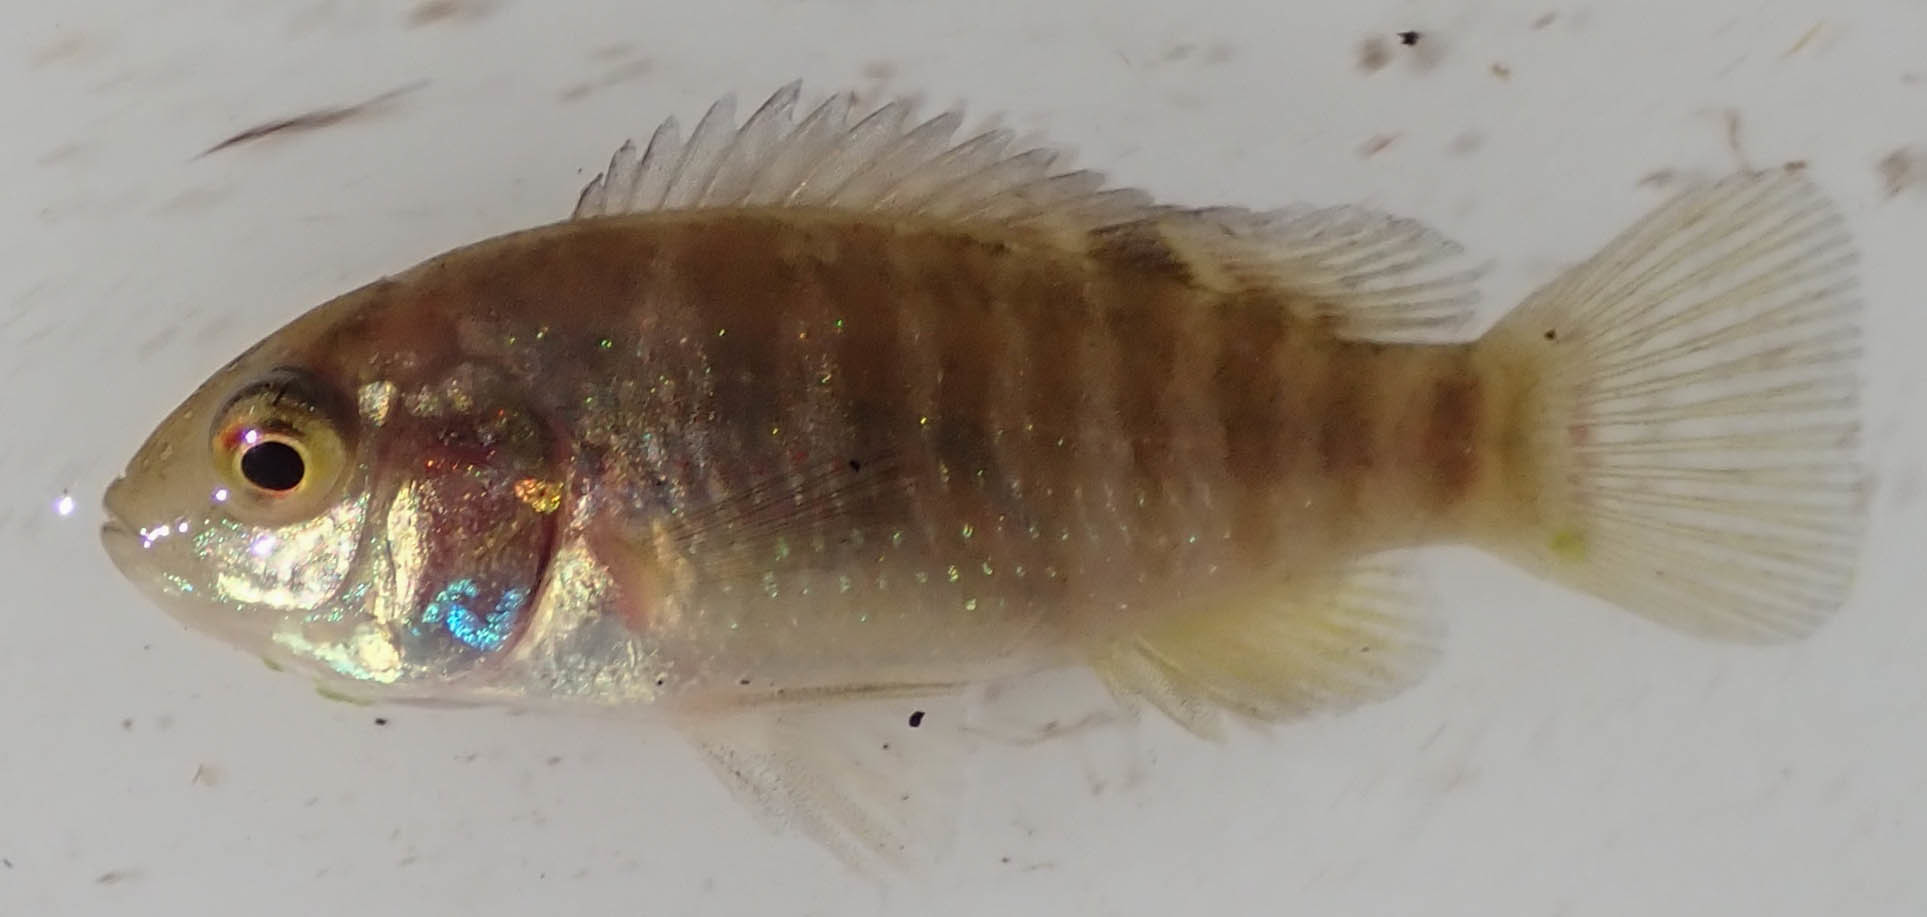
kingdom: Animalia
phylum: Chordata
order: Perciformes
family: Cichlidae
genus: Tilapia
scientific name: Tilapia sparrmanii
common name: Banded tilapia
